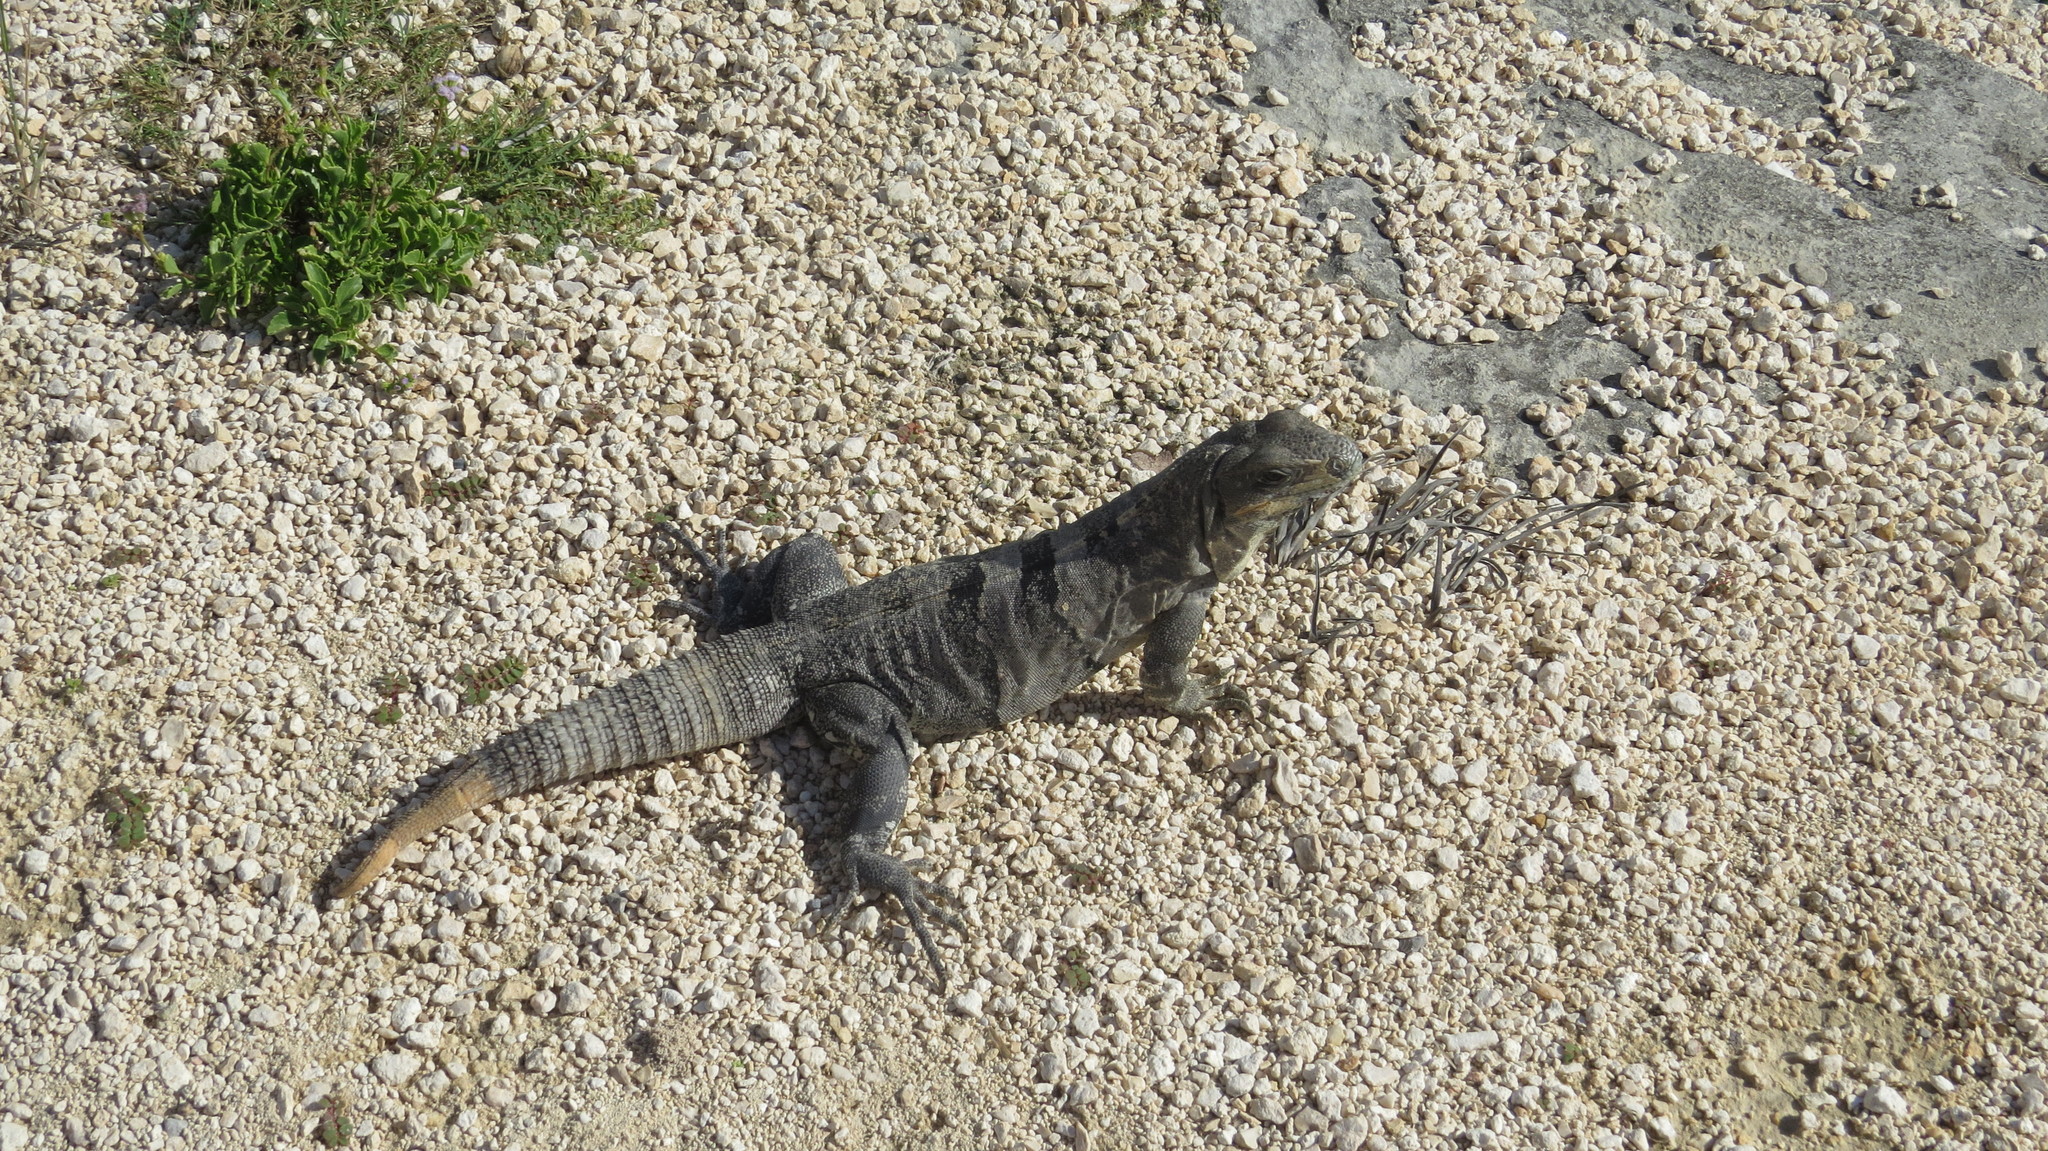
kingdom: Animalia
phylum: Chordata
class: Squamata
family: Iguanidae
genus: Ctenosaura
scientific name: Ctenosaura similis
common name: Black spiny-tailed iguana
